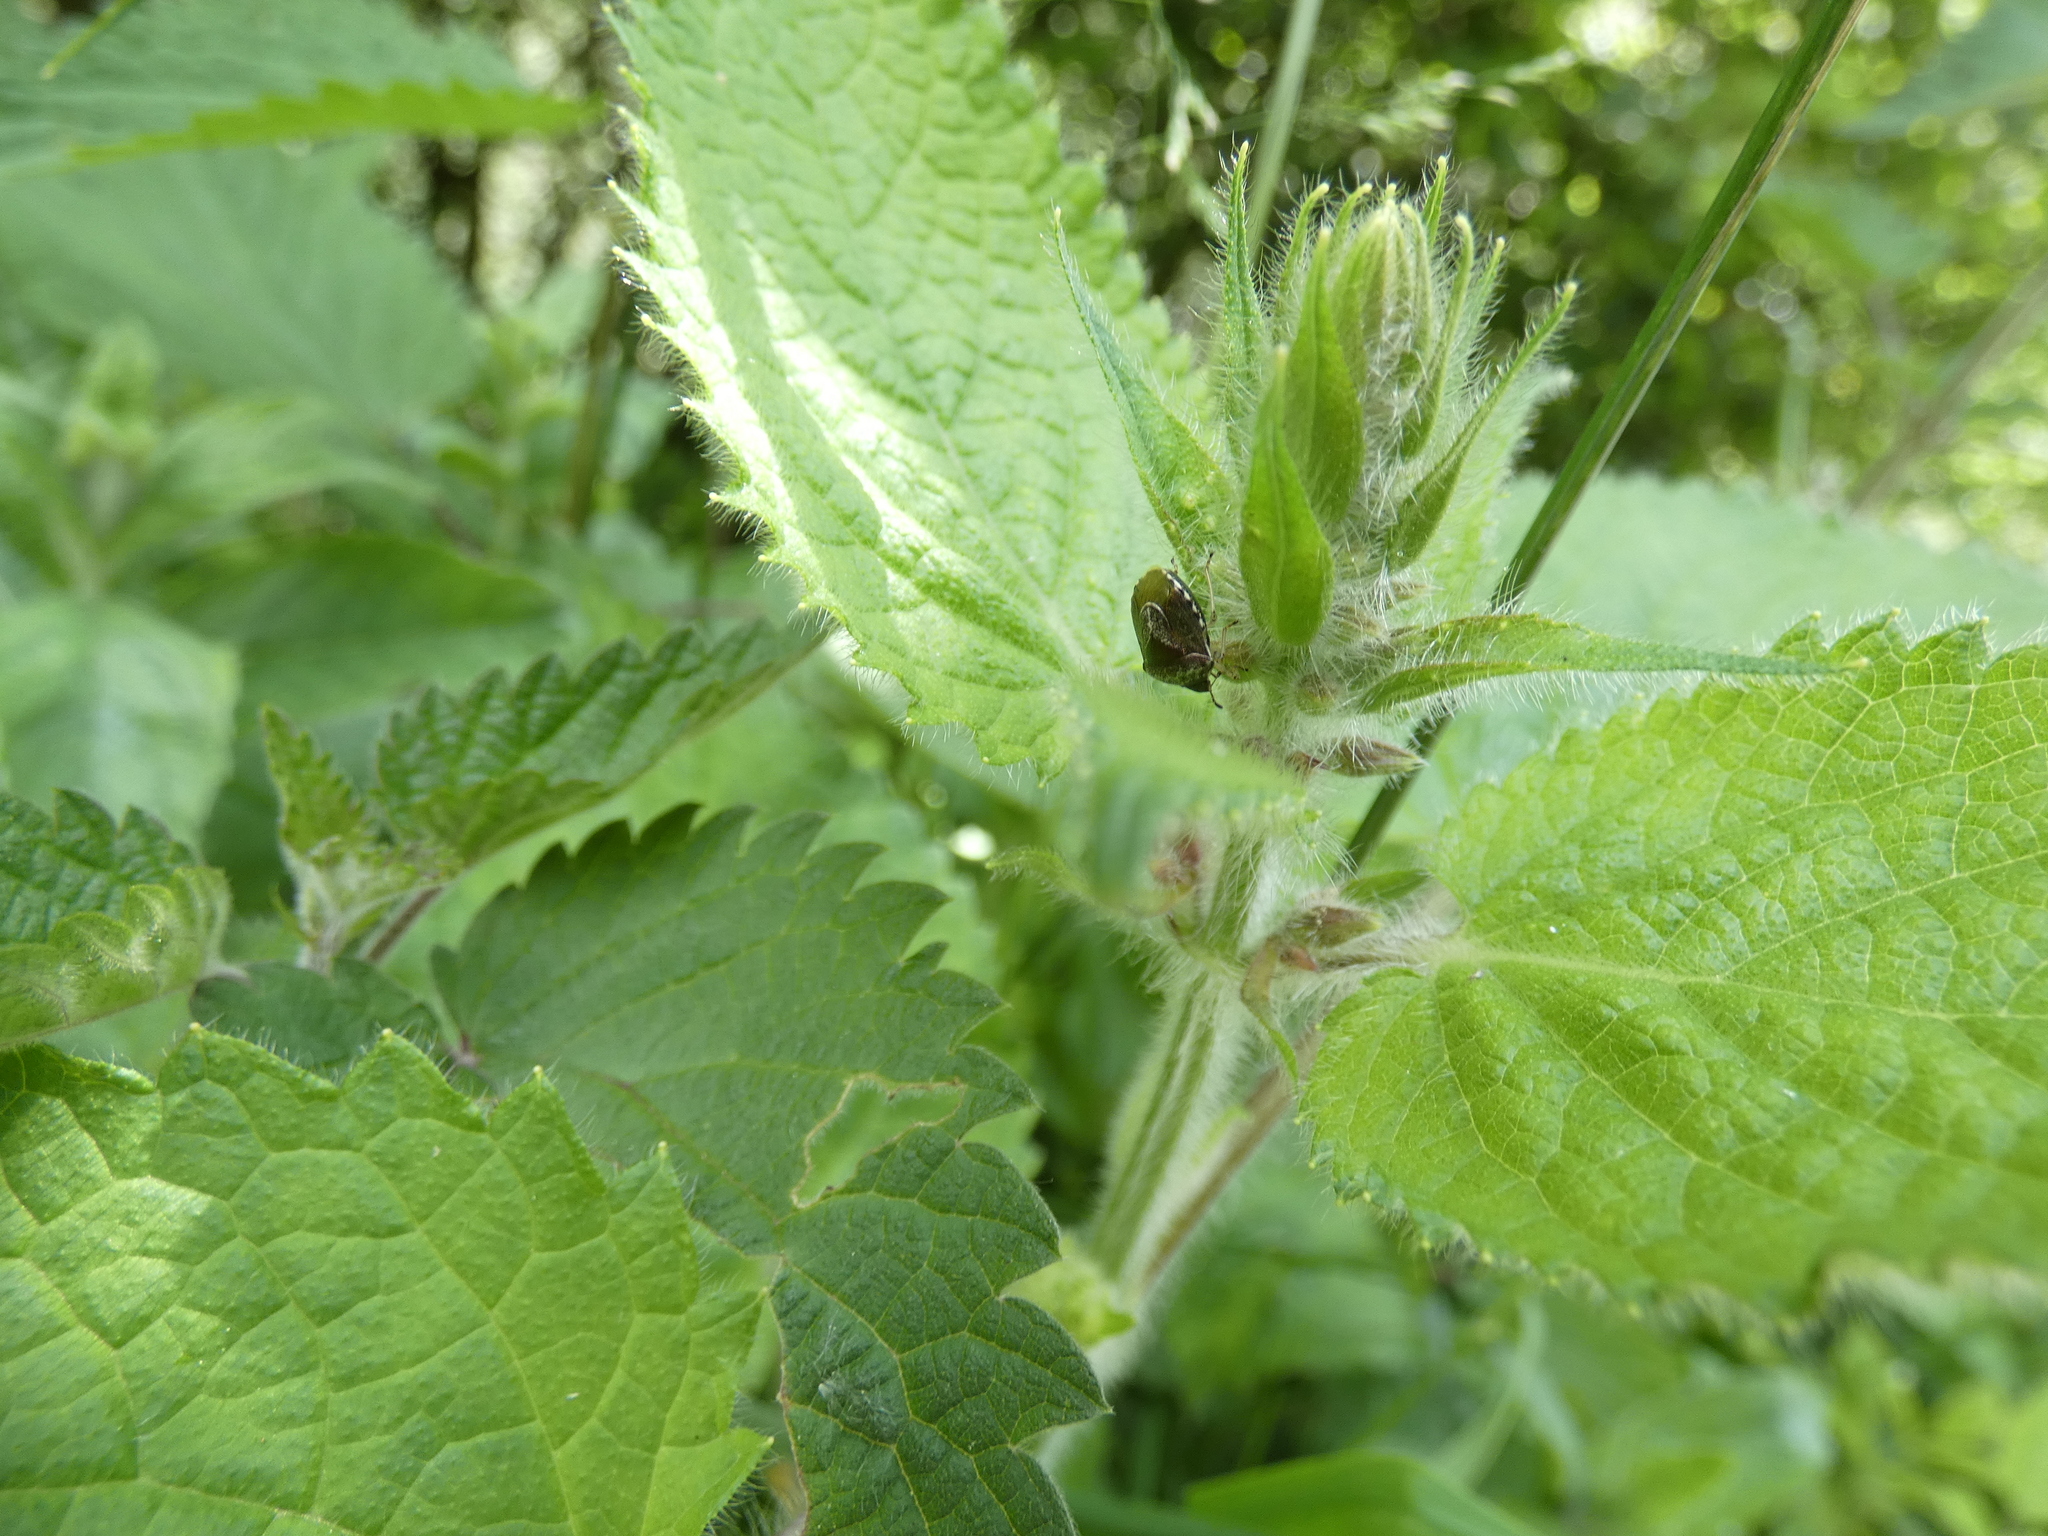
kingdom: Animalia
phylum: Arthropoda
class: Insecta
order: Hemiptera
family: Pentatomidae
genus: Eysarcoris
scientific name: Eysarcoris venustissimus
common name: Woundwort shieldbug
